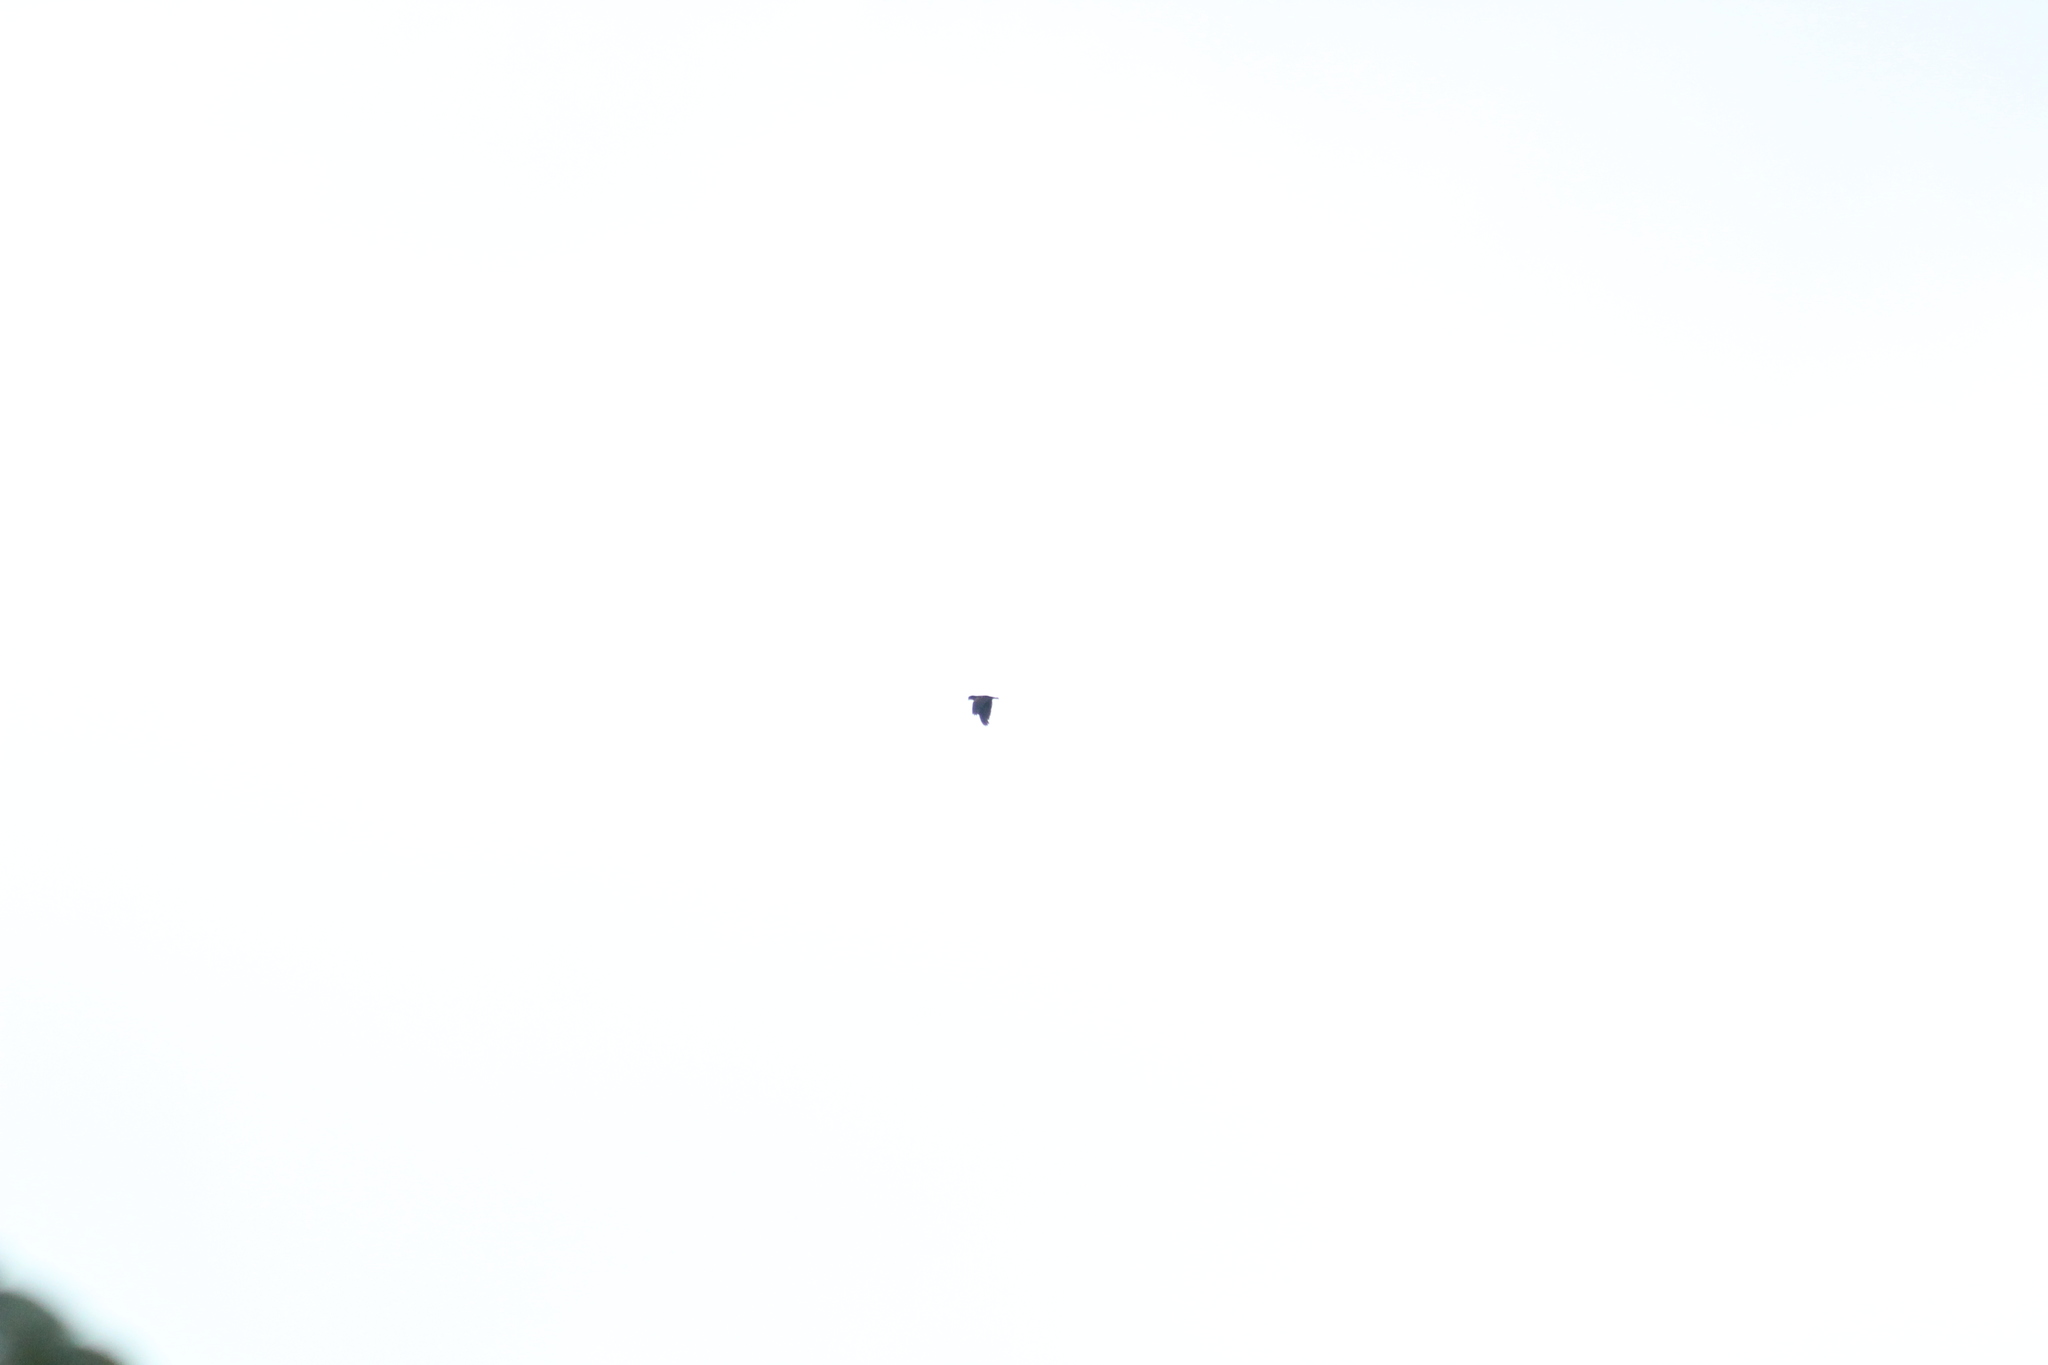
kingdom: Animalia
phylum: Chordata
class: Aves
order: Psittaciformes
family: Psittacidae
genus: Pionus
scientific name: Pionus chalcopterus
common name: Bronze-winged parrot
